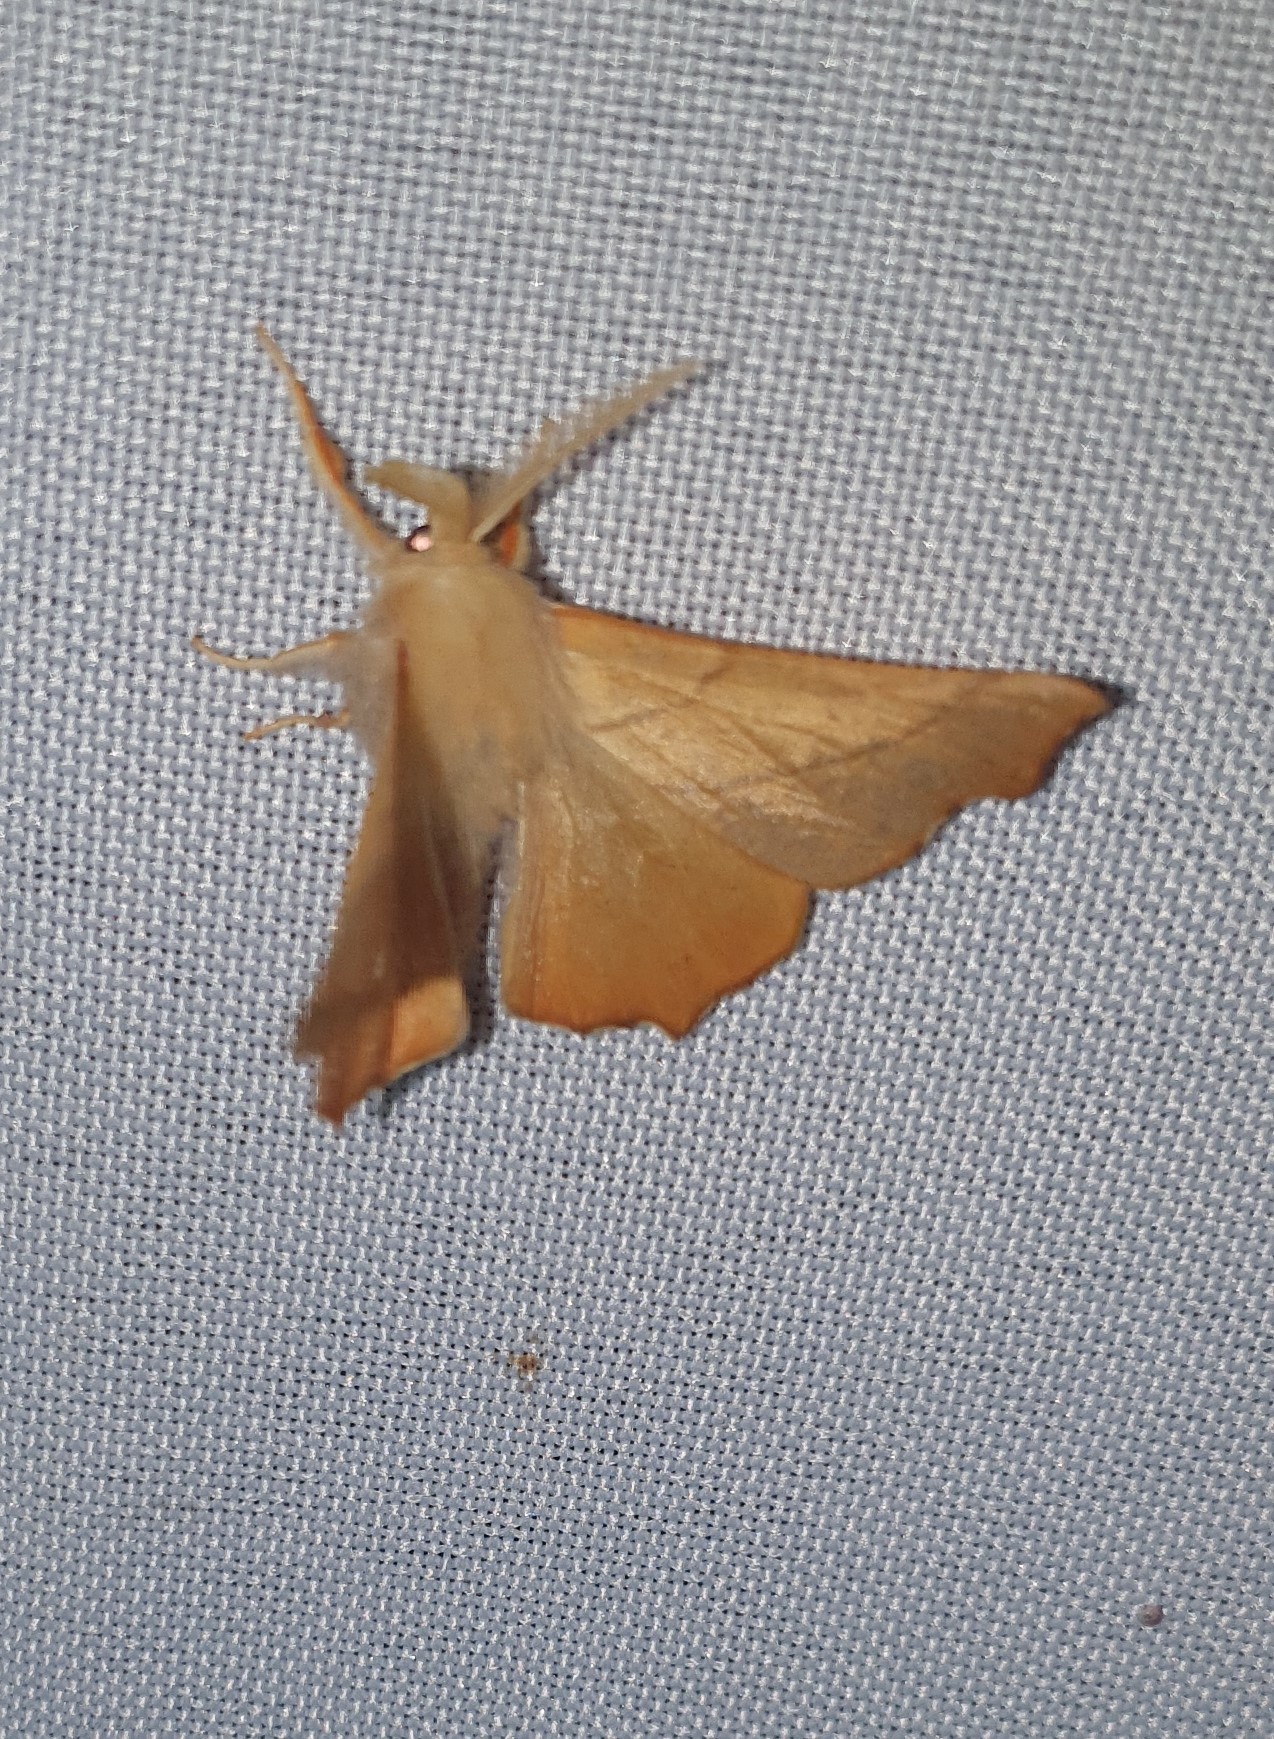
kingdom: Animalia
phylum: Arthropoda
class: Insecta
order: Lepidoptera
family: Geometridae
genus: Ennomos
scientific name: Ennomos fuscantaria
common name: Dusky thorn
